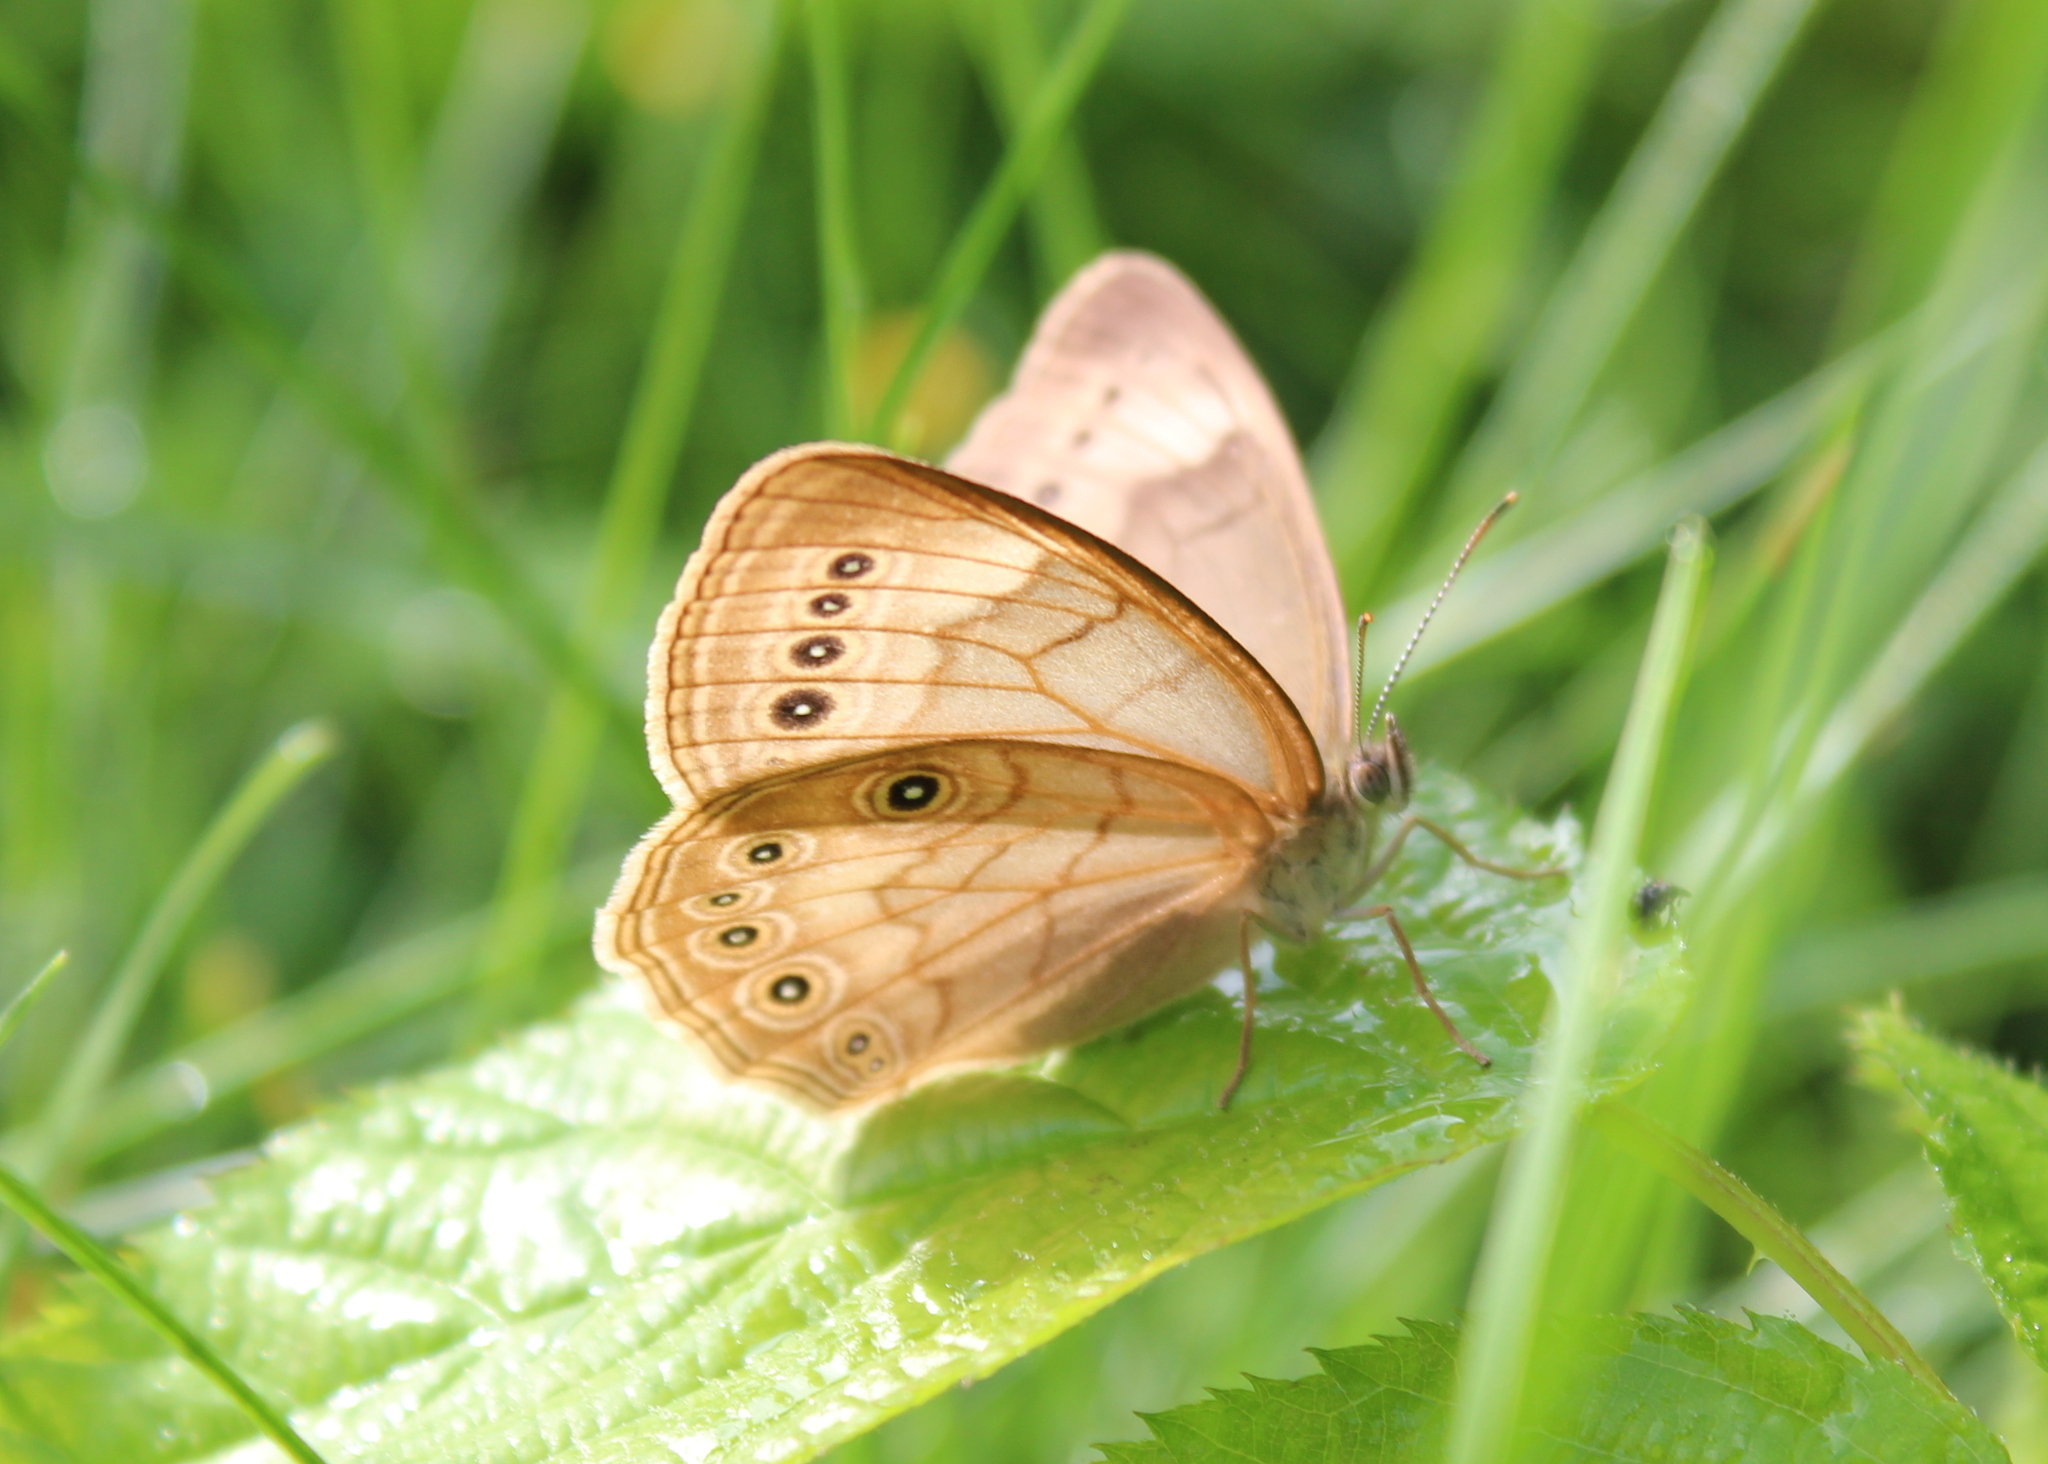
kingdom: Animalia
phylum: Arthropoda
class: Insecta
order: Lepidoptera
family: Nymphalidae
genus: Lethe
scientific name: Lethe eurydice
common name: Eyed brown
